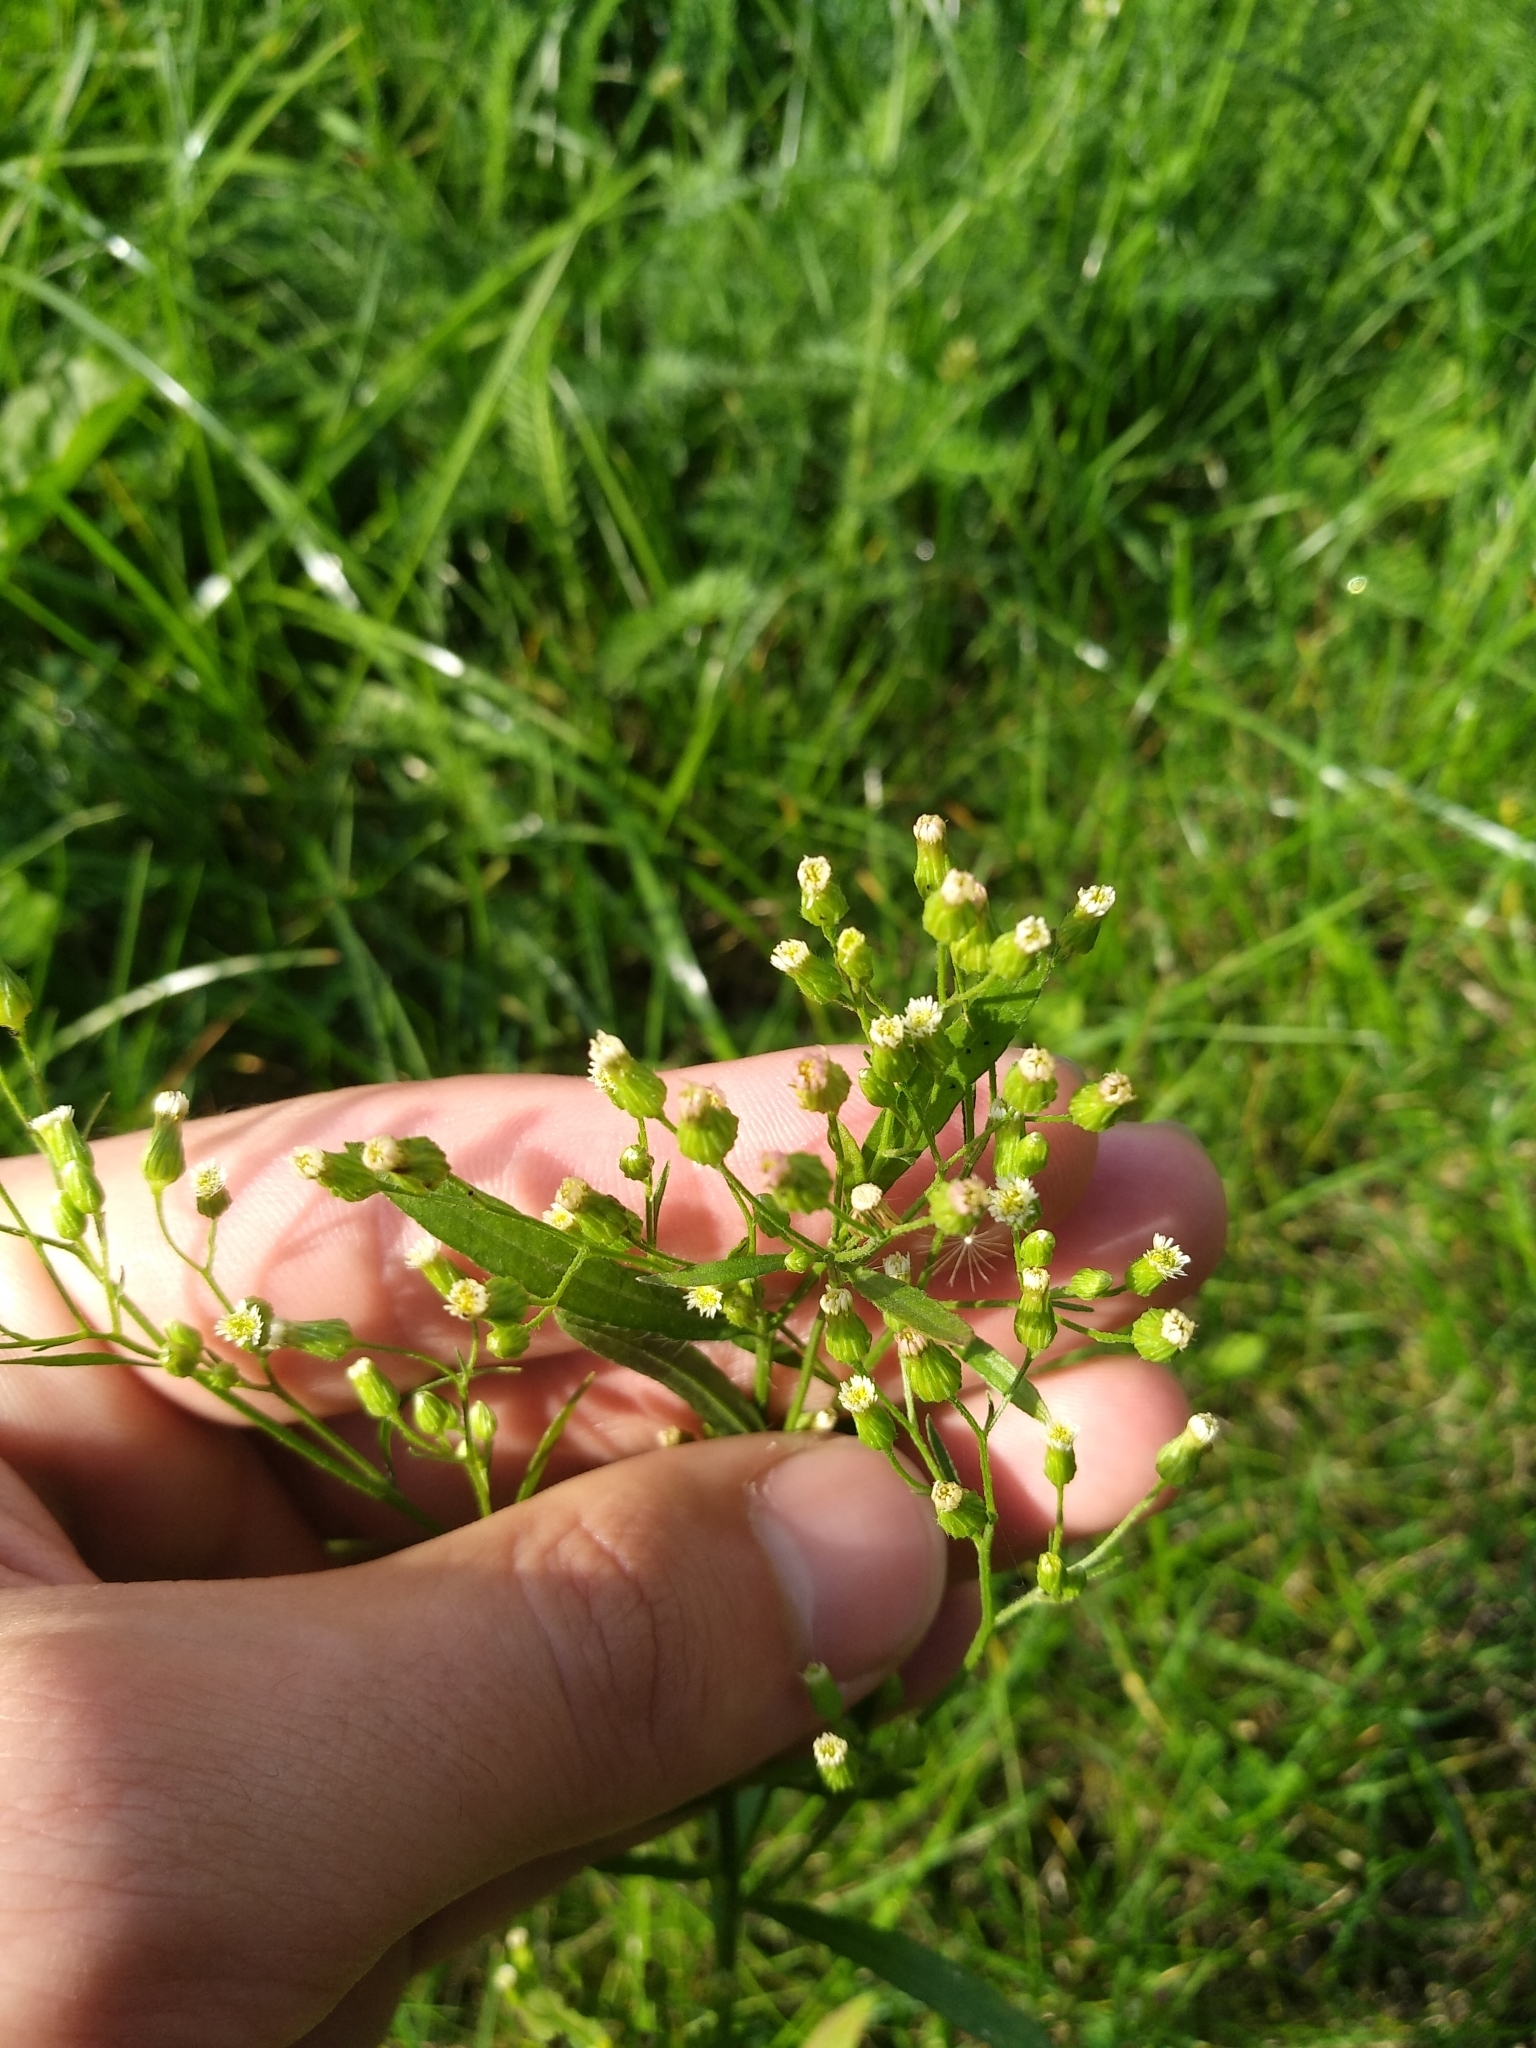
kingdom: Plantae
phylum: Tracheophyta
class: Magnoliopsida
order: Asterales
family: Asteraceae
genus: Erigeron
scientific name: Erigeron canadensis
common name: Canadian fleabane
